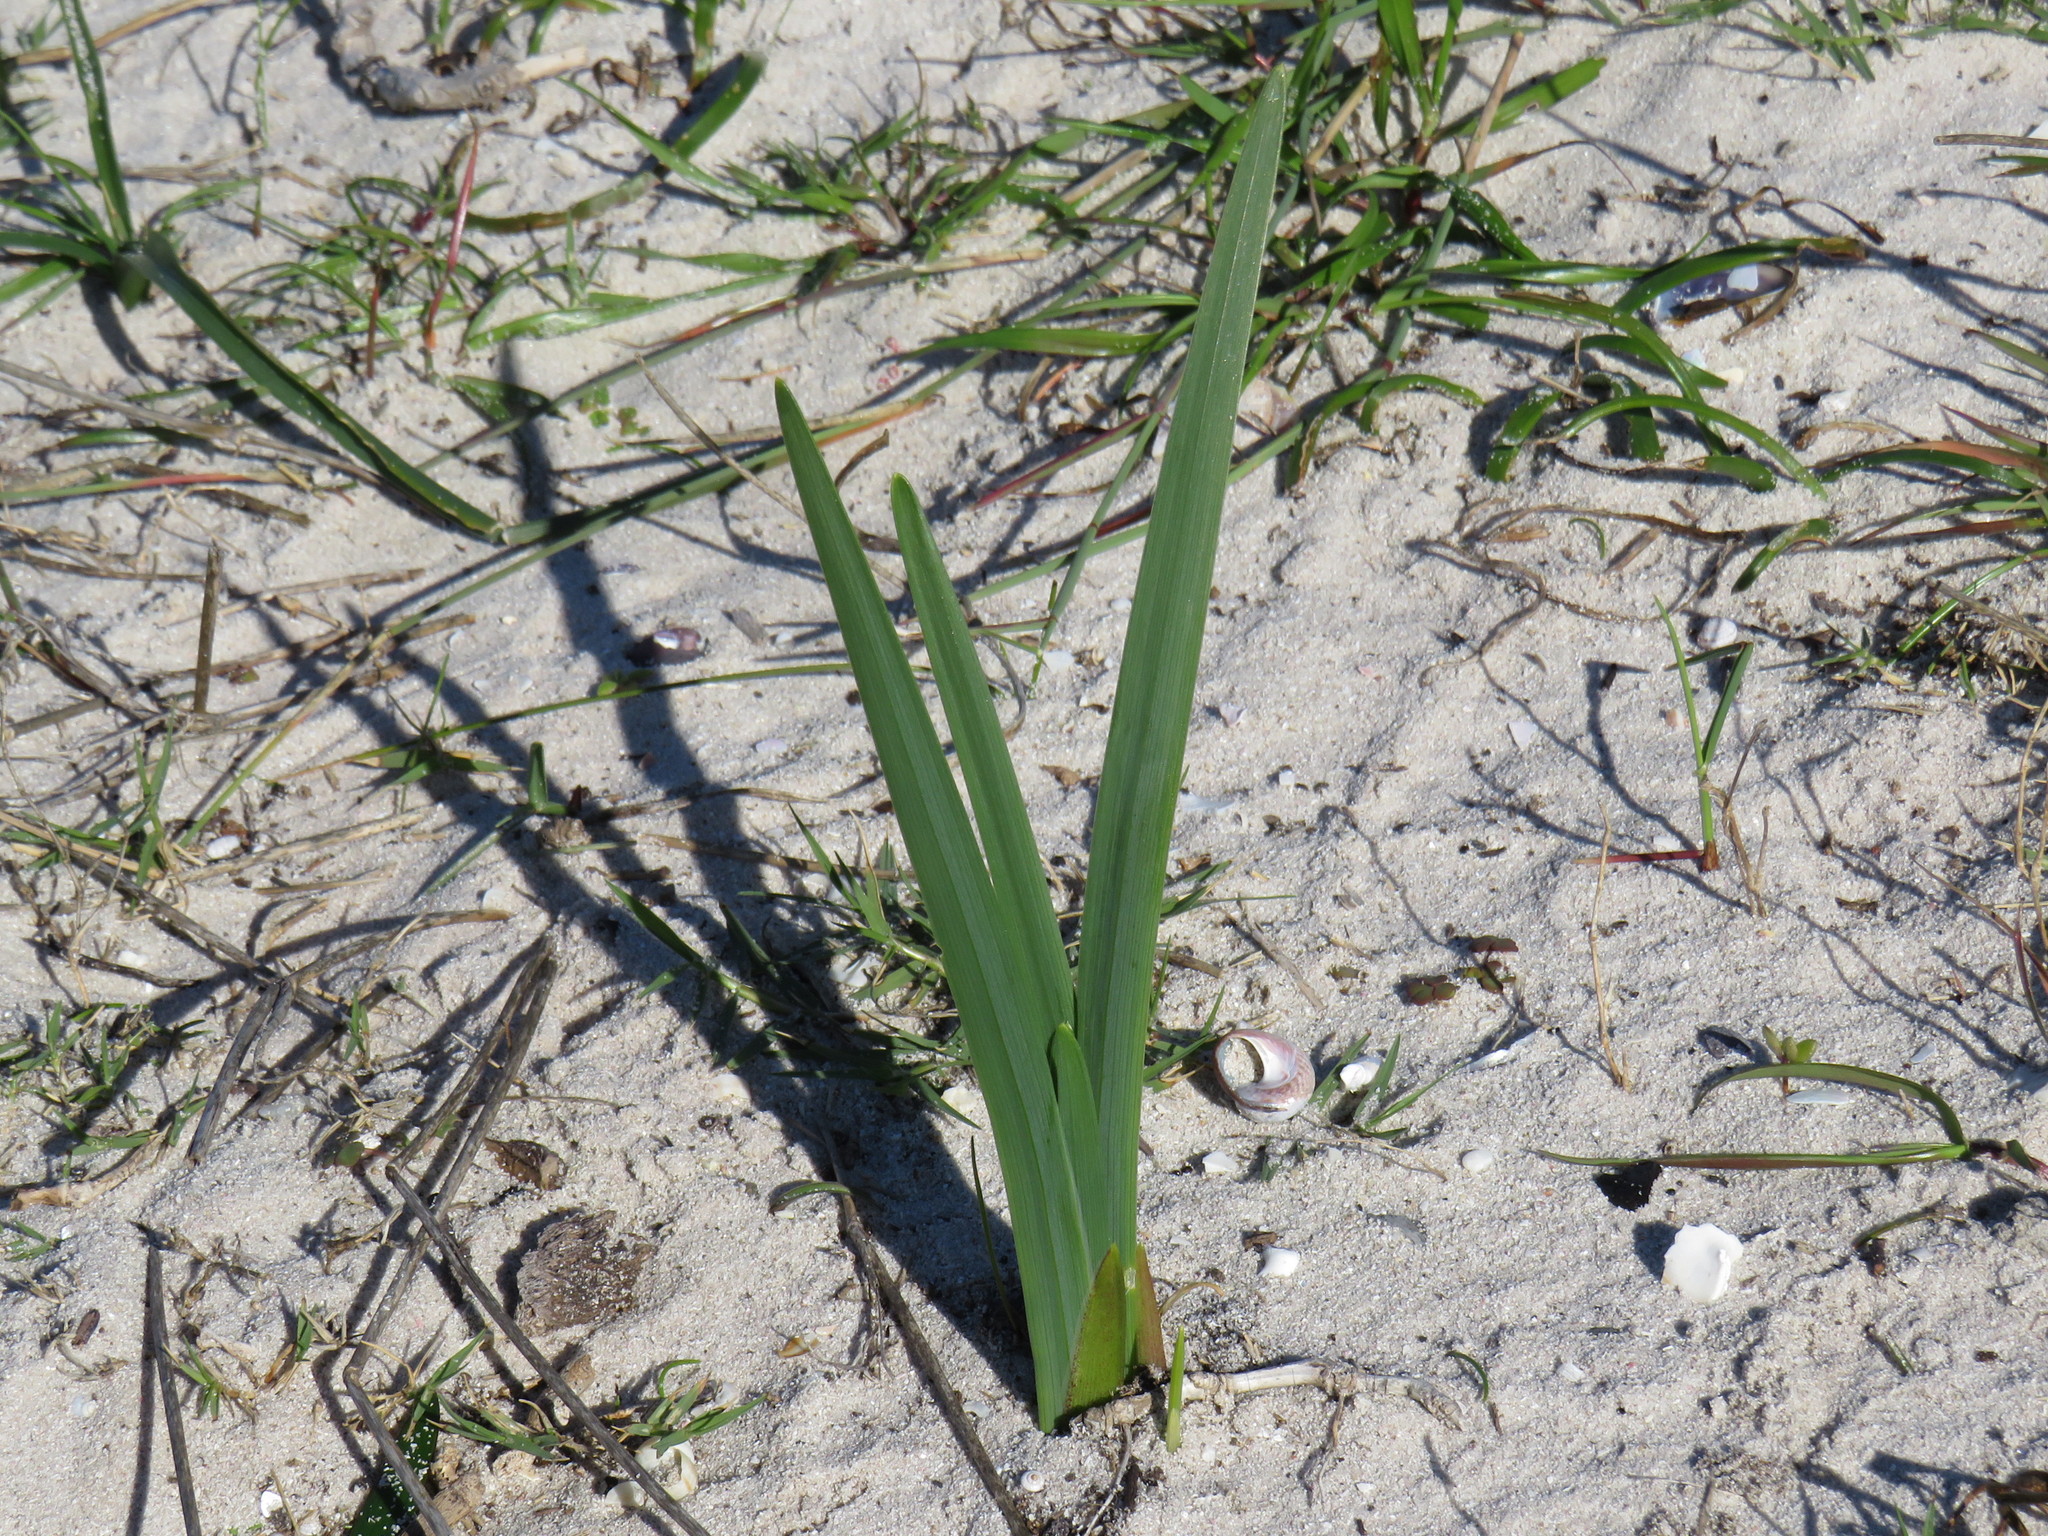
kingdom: Plantae
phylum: Tracheophyta
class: Liliopsida
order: Asparagales
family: Iridaceae
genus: Ferraria
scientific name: Ferraria crispa
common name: Black-flag
